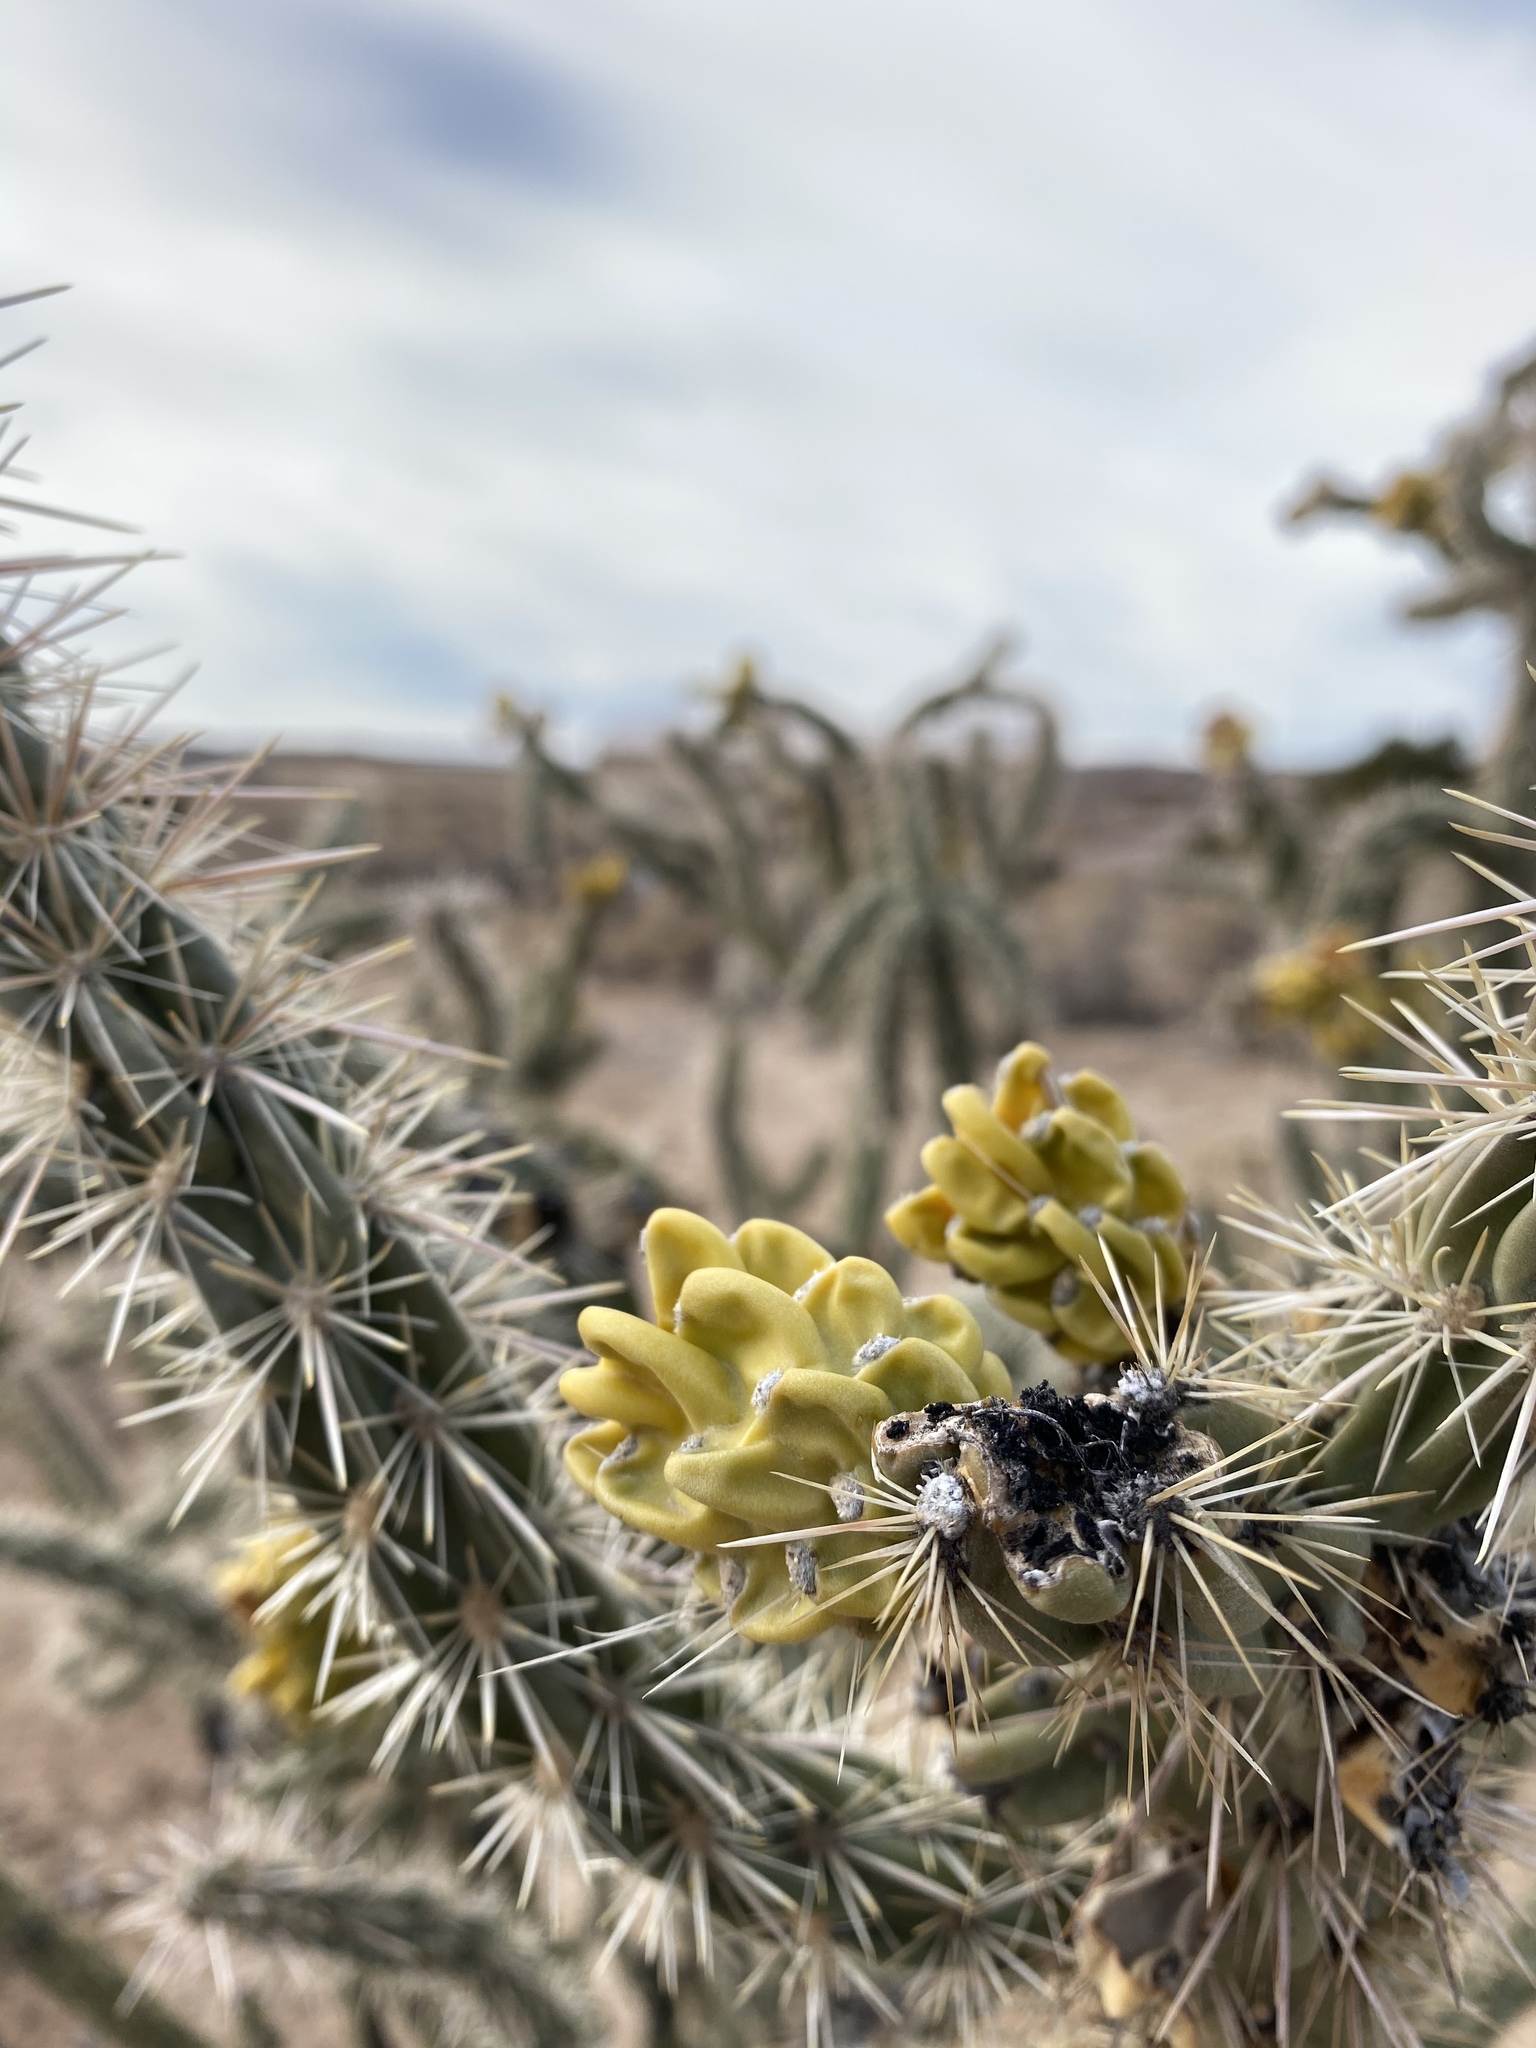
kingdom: Plantae
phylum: Tracheophyta
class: Magnoliopsida
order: Caryophyllales
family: Cactaceae
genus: Cylindropuntia
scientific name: Cylindropuntia imbricata
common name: Candelabrum cactus
